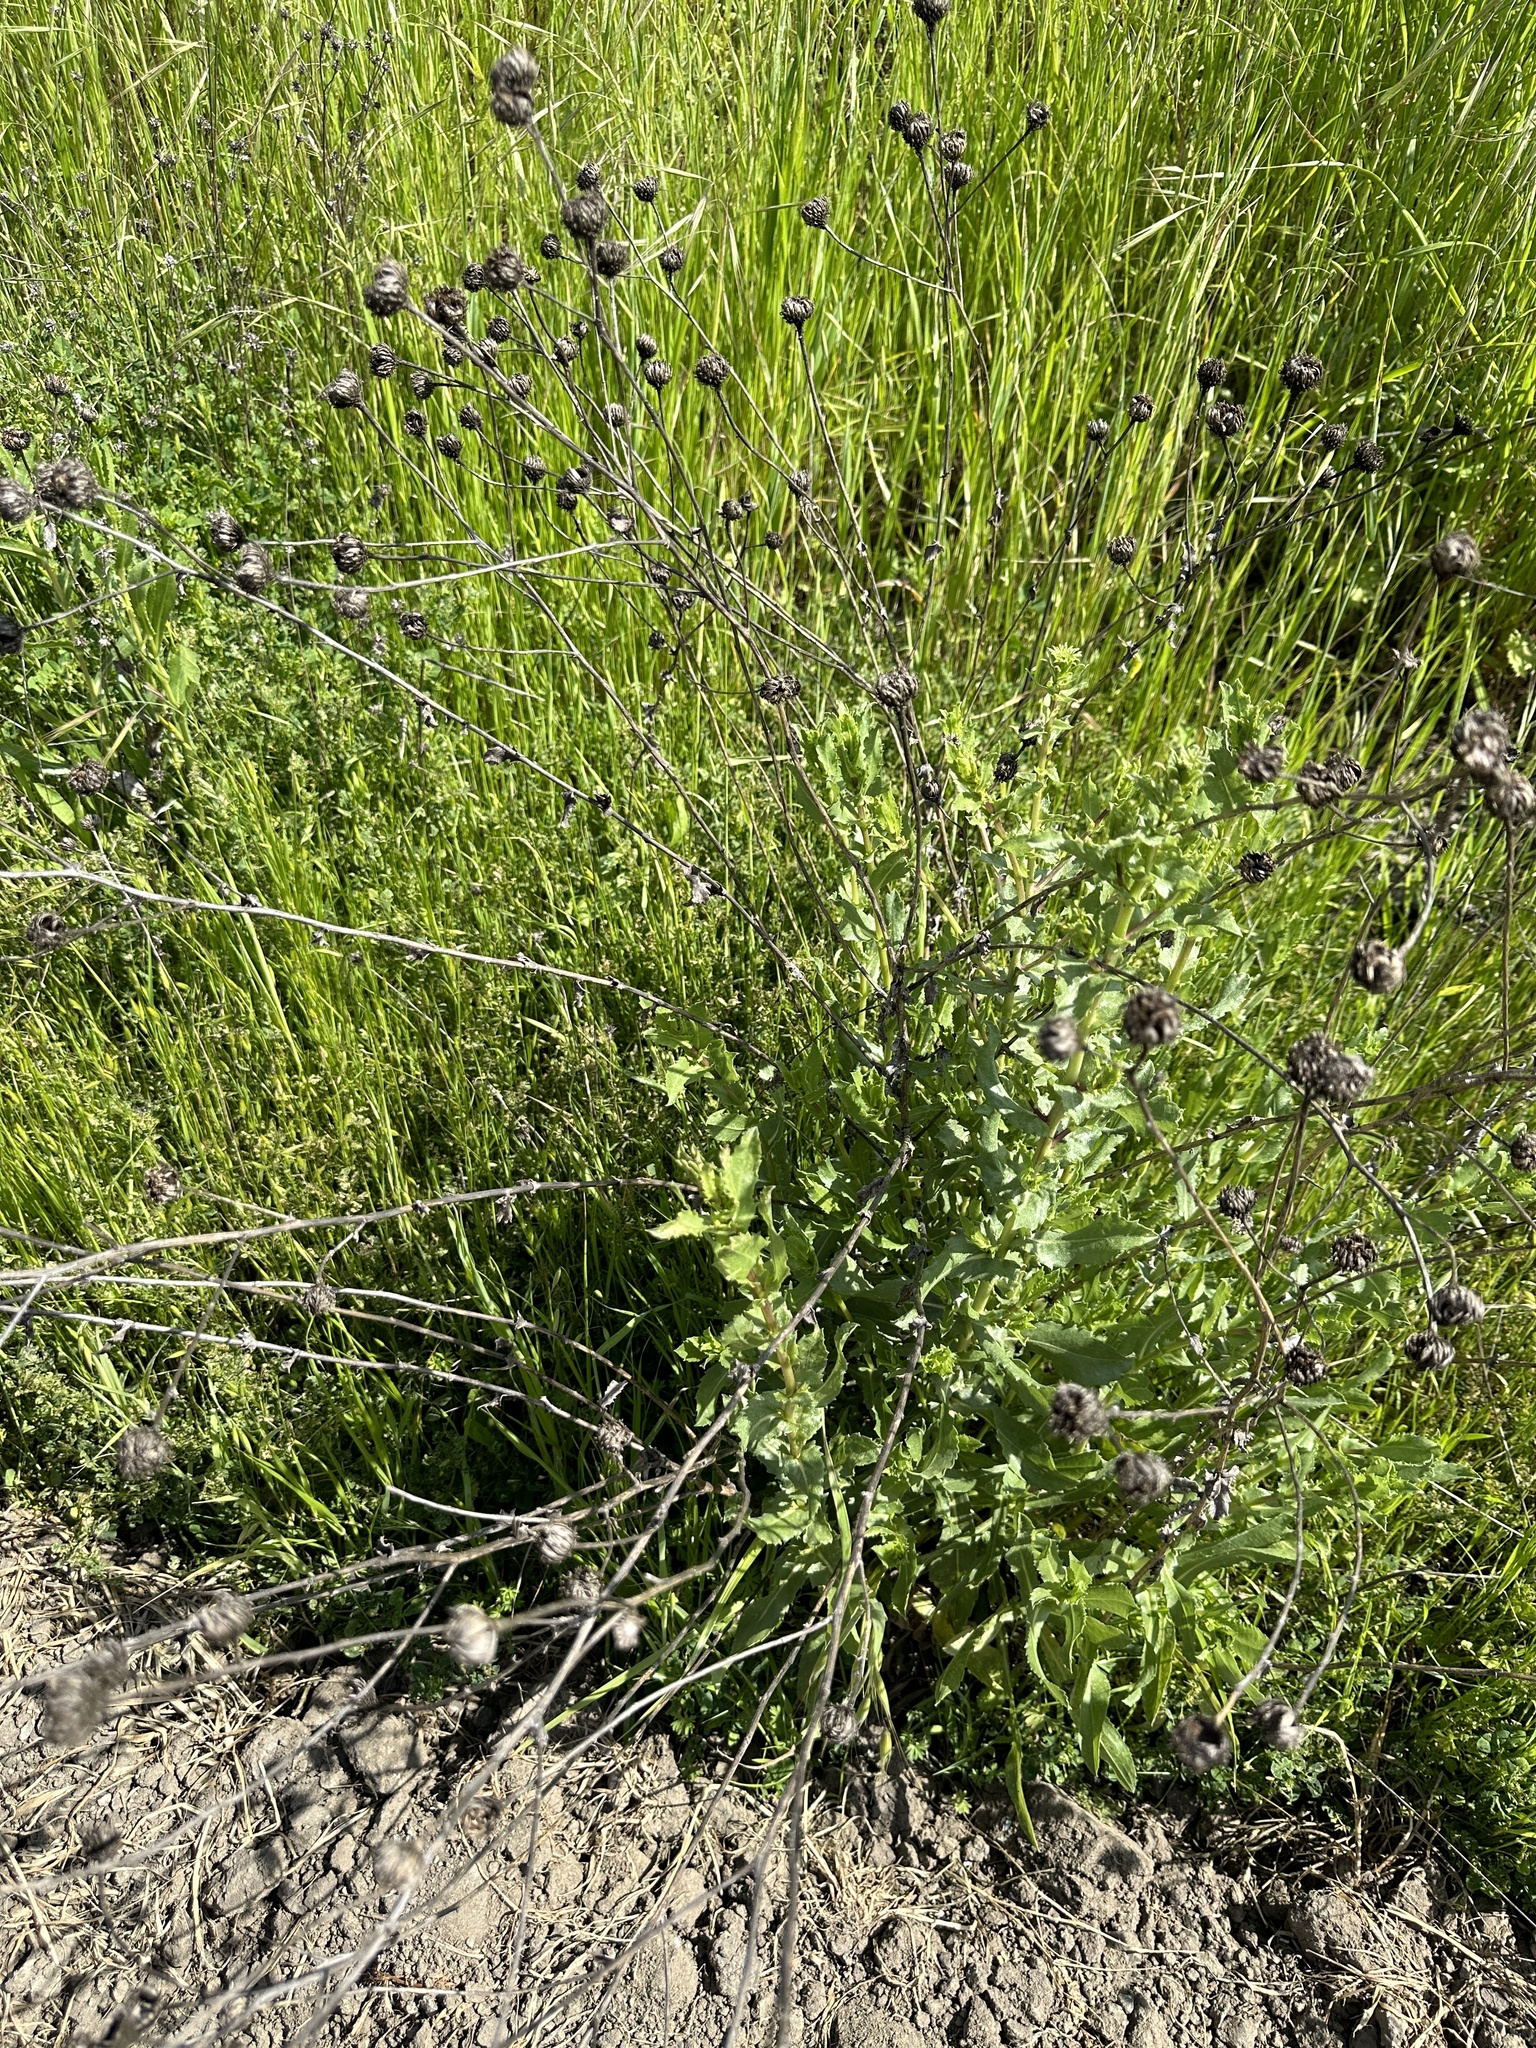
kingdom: Plantae
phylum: Tracheophyta
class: Magnoliopsida
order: Asterales
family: Asteraceae
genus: Grindelia
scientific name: Grindelia hirsutula
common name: Hairy gumweed
